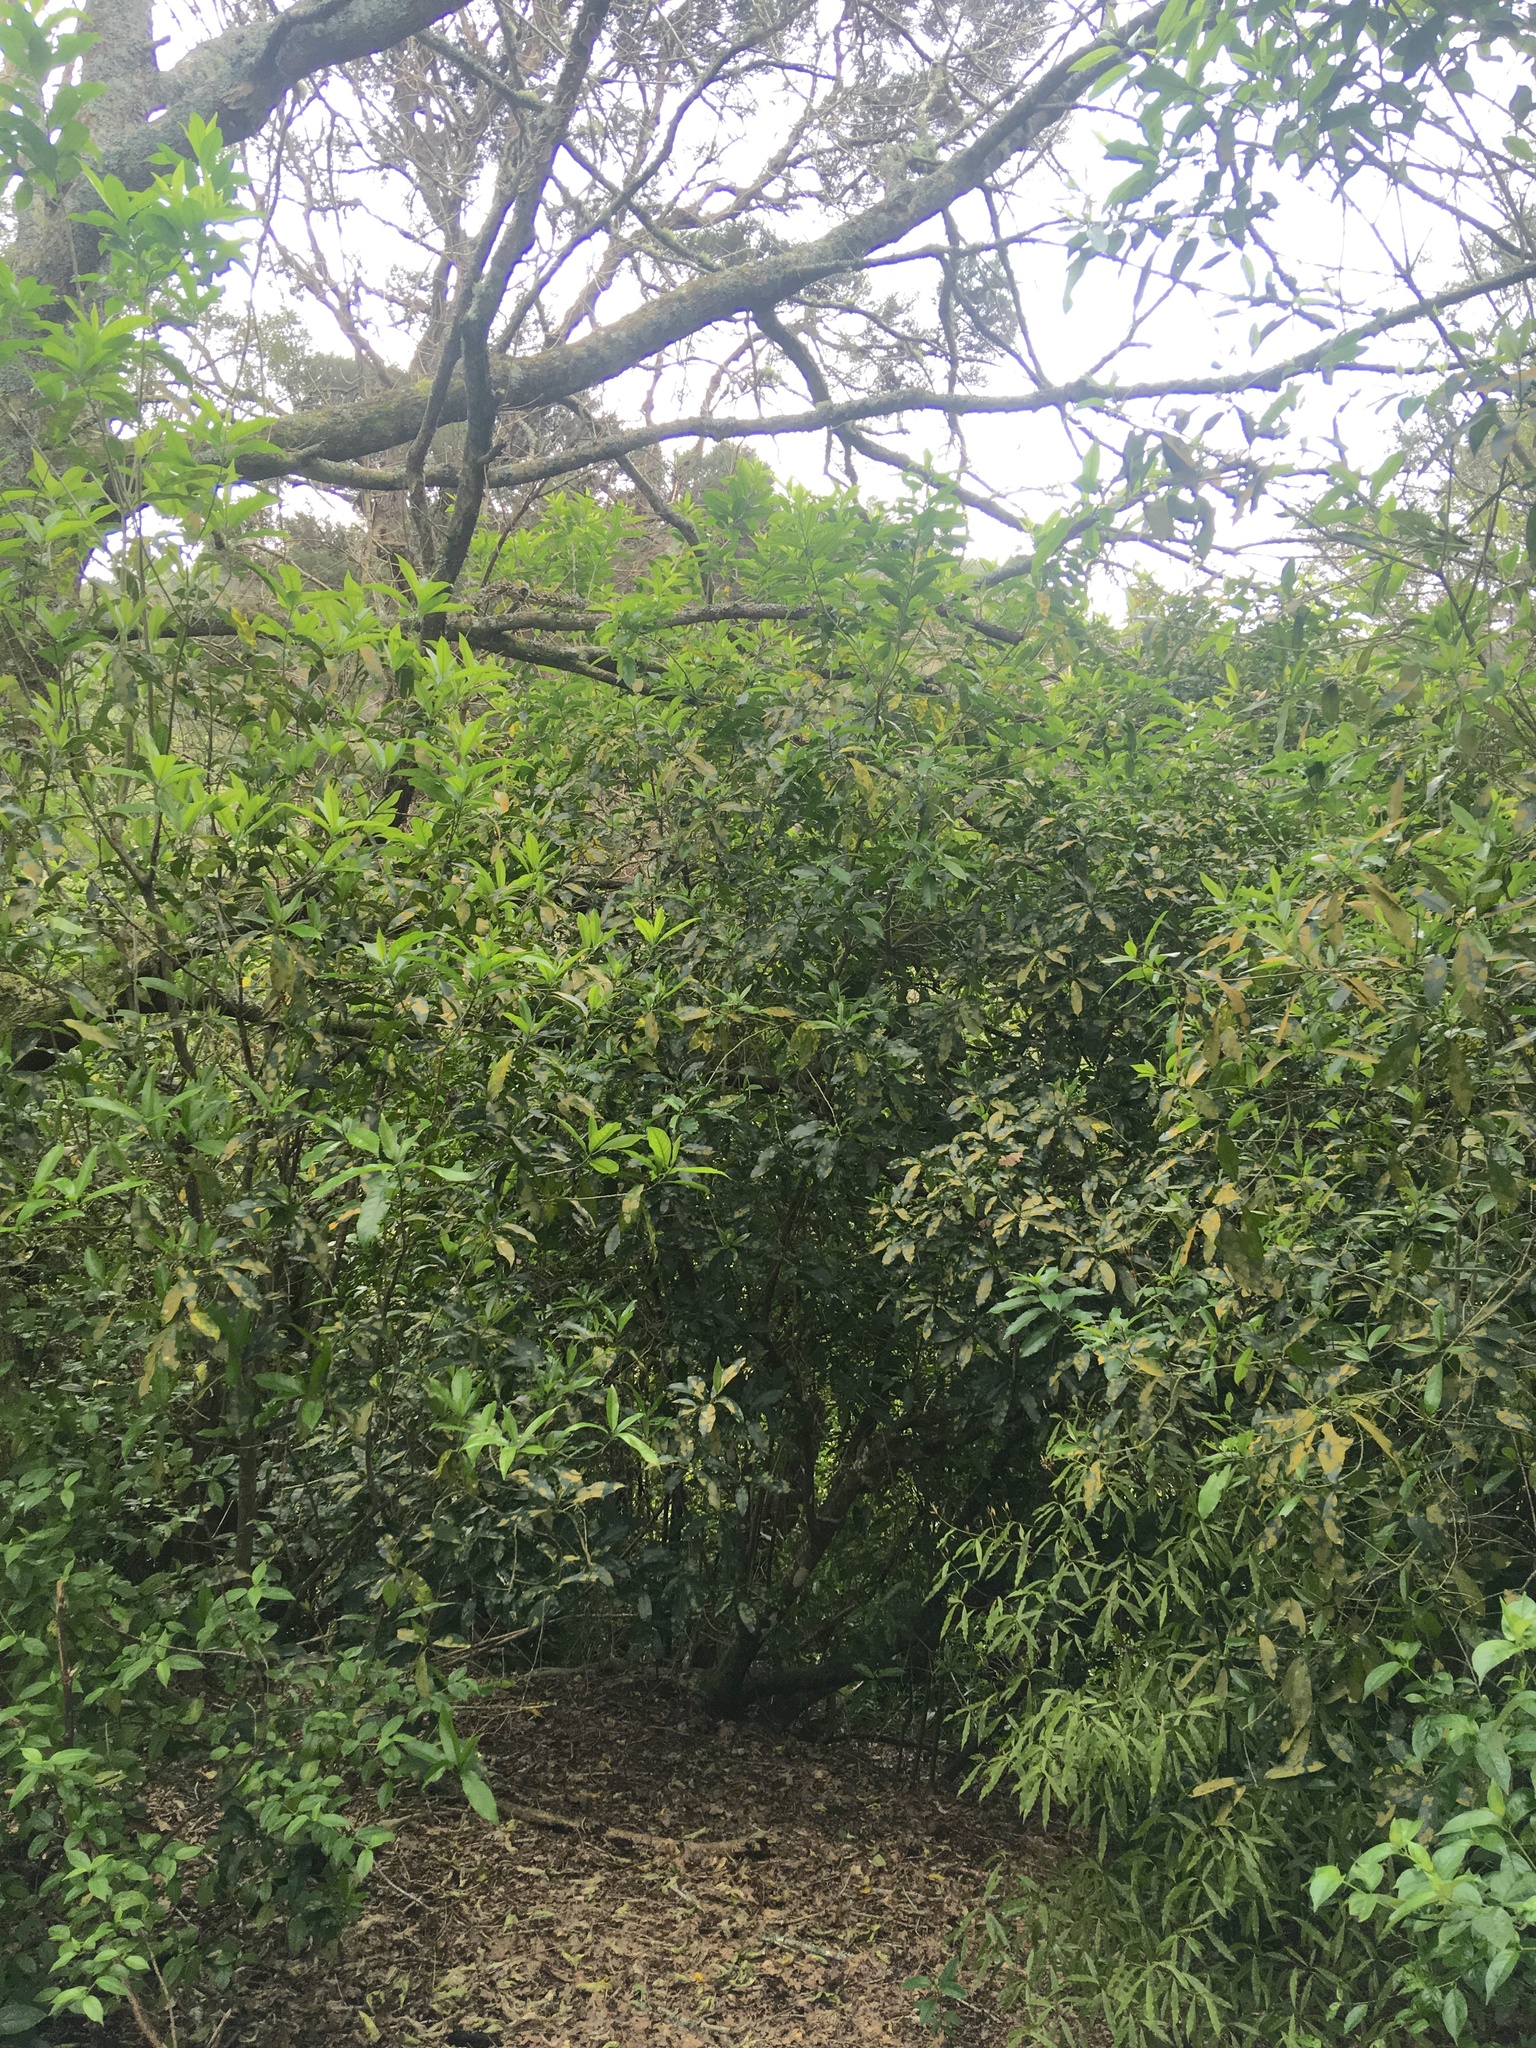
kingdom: Plantae
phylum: Tracheophyta
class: Magnoliopsida
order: Laurales
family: Lauraceae
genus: Beilschmiedia
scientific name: Beilschmiedia tawa
